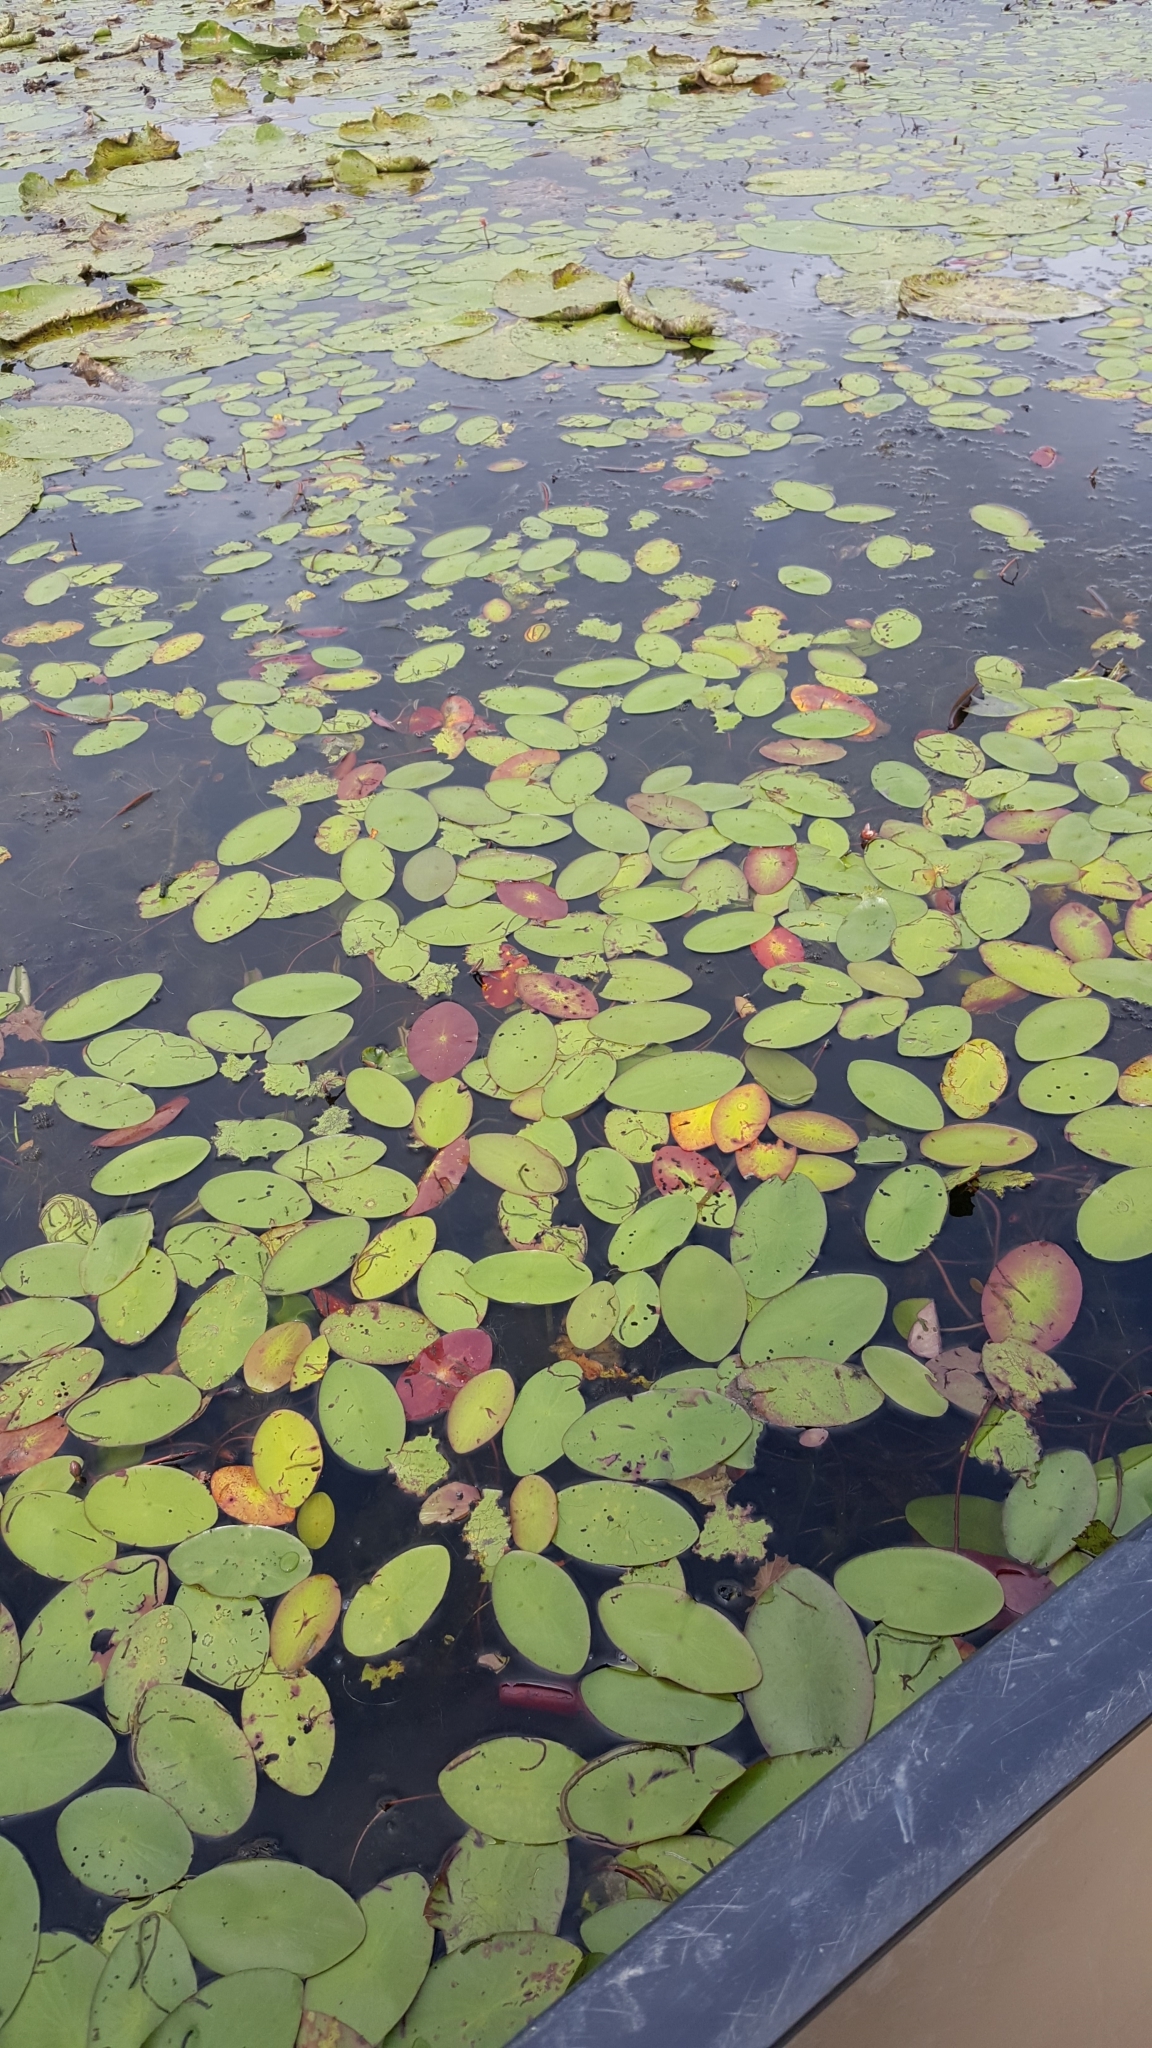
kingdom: Plantae
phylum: Tracheophyta
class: Magnoliopsida
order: Nymphaeales
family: Cabombaceae
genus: Brasenia
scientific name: Brasenia schreberi
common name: Water-shield
